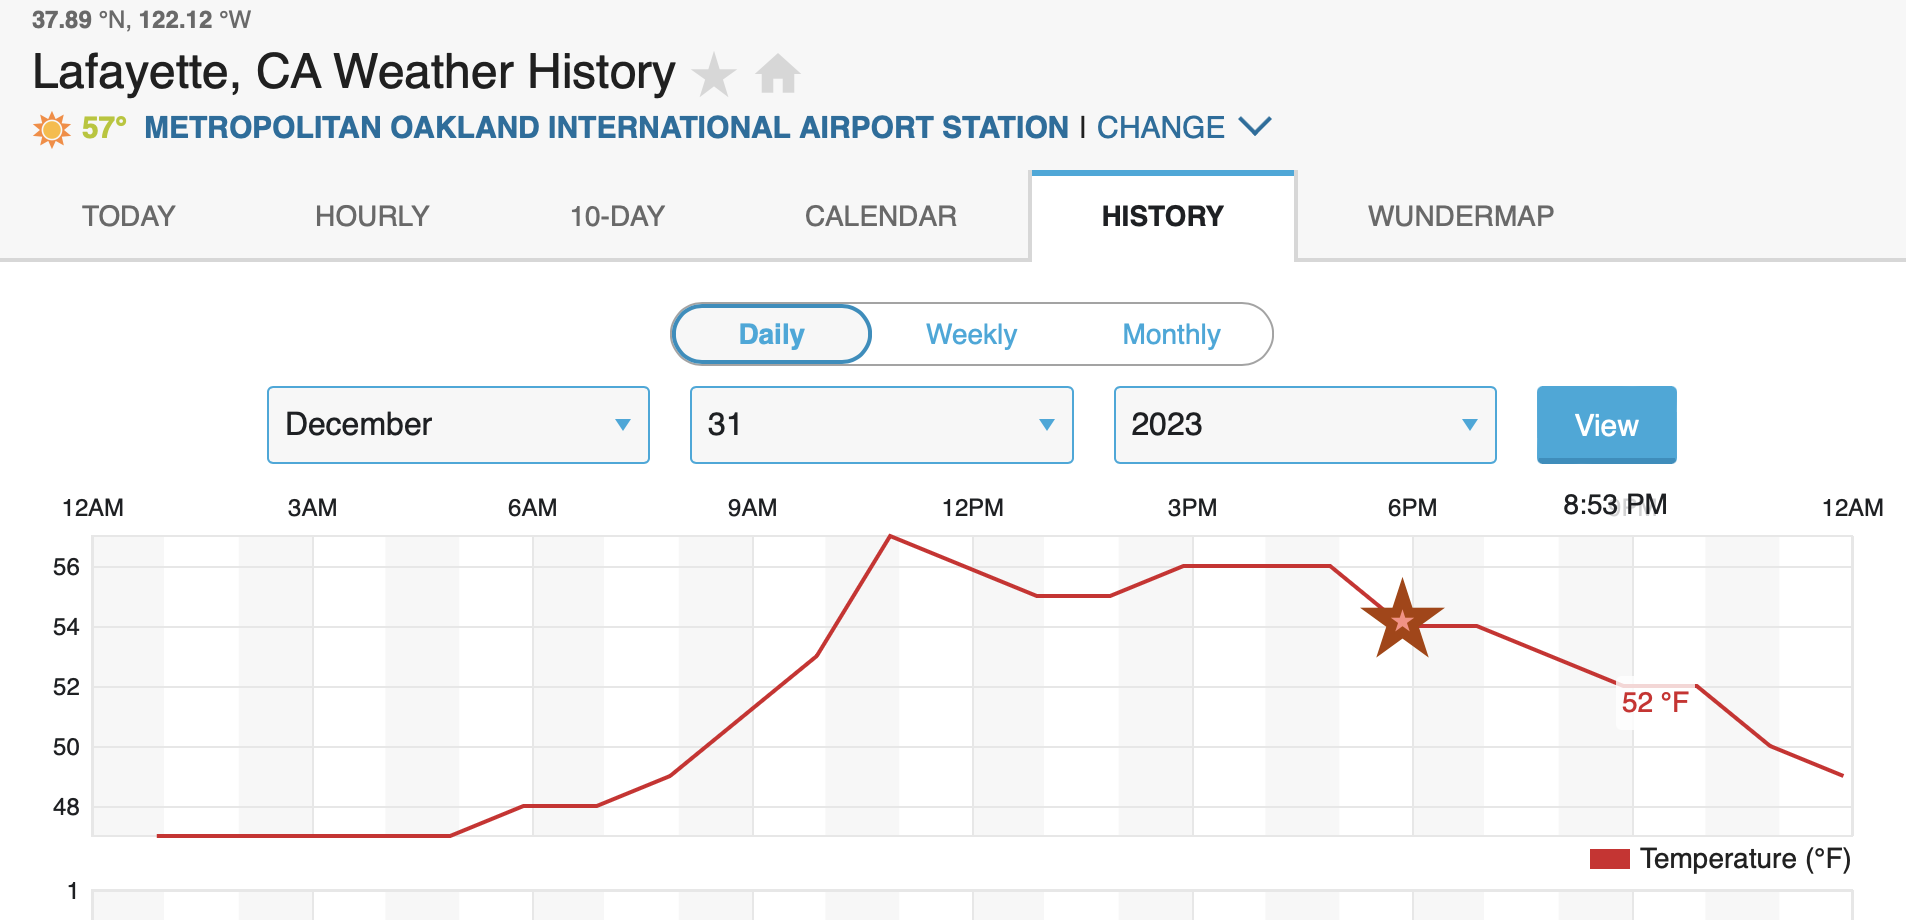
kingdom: Animalia
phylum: Arthropoda
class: Insecta
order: Orthoptera
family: Gryllidae
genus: Oecanthus
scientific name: Oecanthus fultoni
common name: Snowy tree cricket
